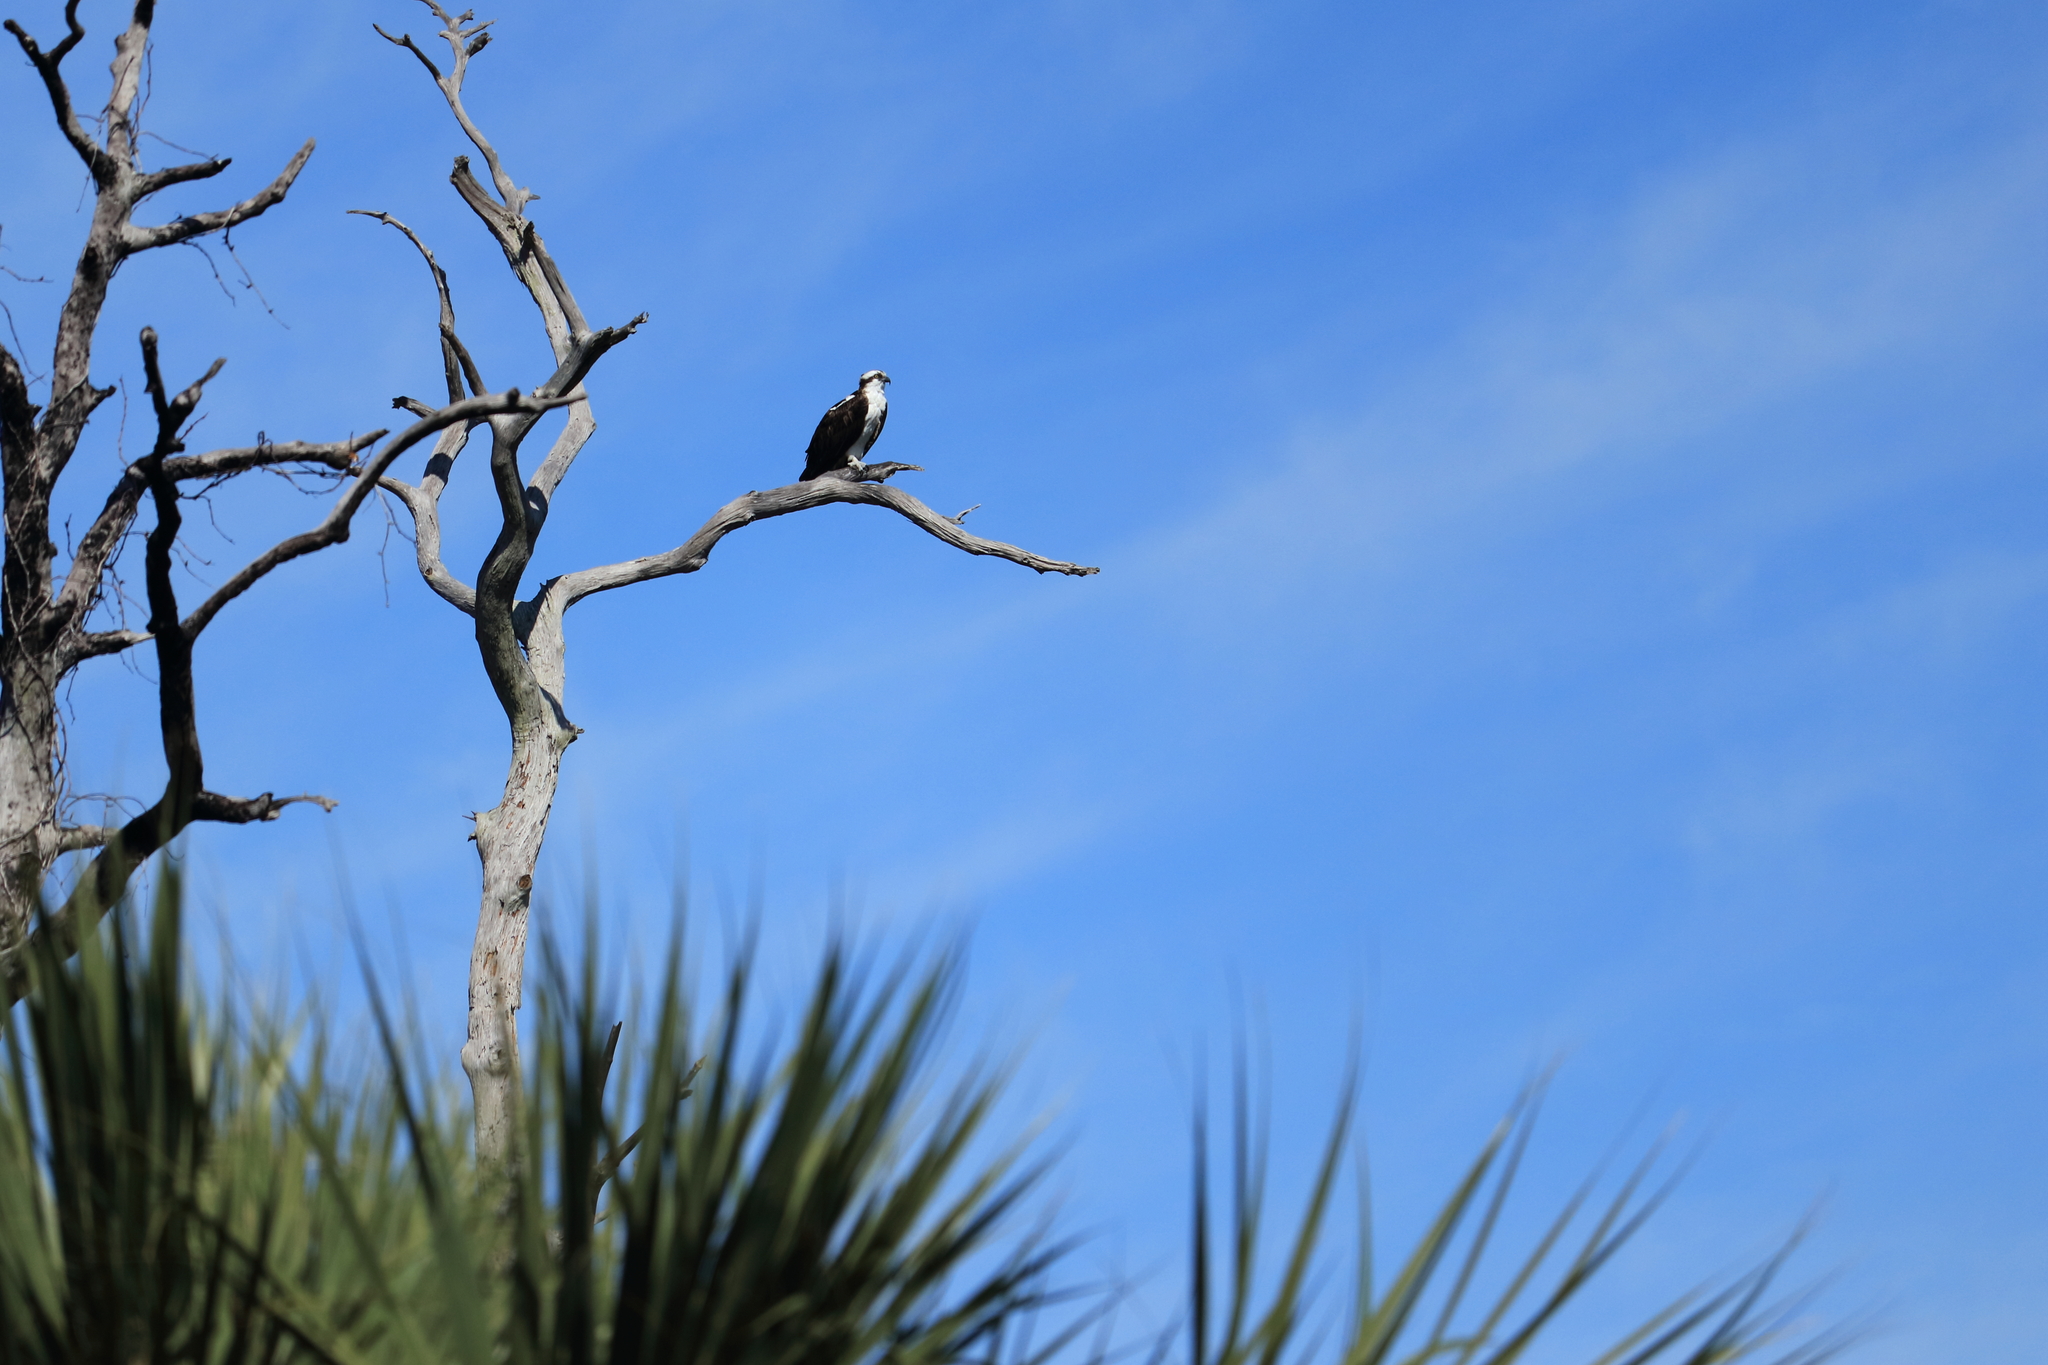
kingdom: Animalia
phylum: Chordata
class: Aves
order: Accipitriformes
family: Pandionidae
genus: Pandion
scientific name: Pandion haliaetus
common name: Osprey
